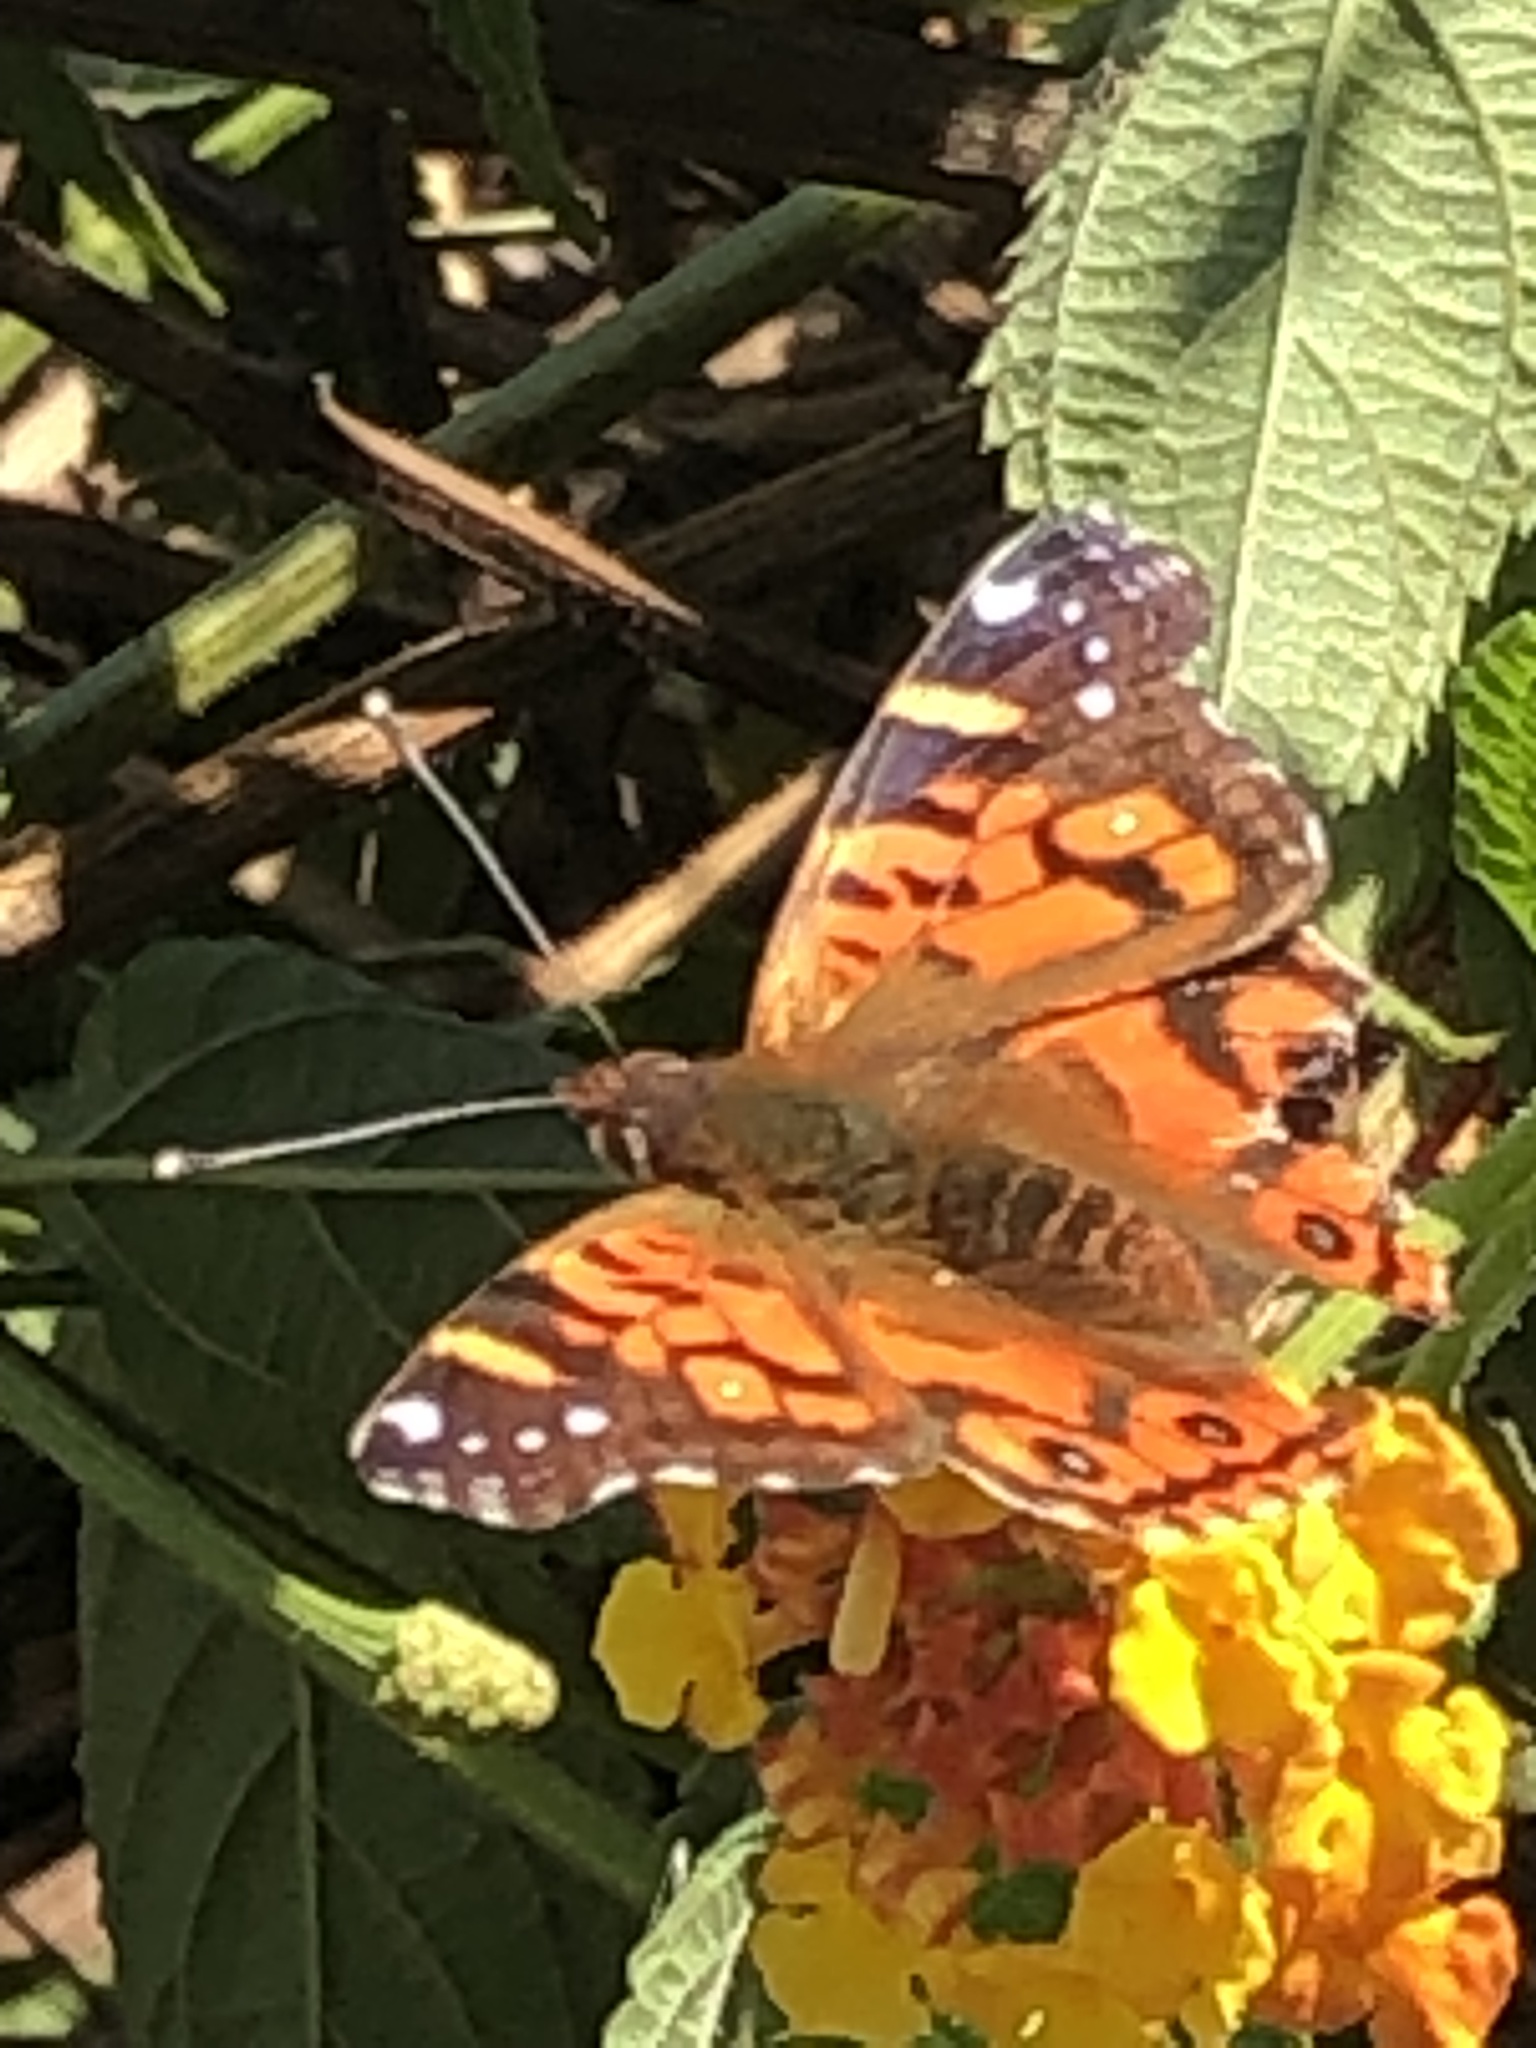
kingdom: Animalia
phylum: Arthropoda
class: Insecta
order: Lepidoptera
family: Nymphalidae
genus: Vanessa
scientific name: Vanessa terpsichore
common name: Chilean lady
